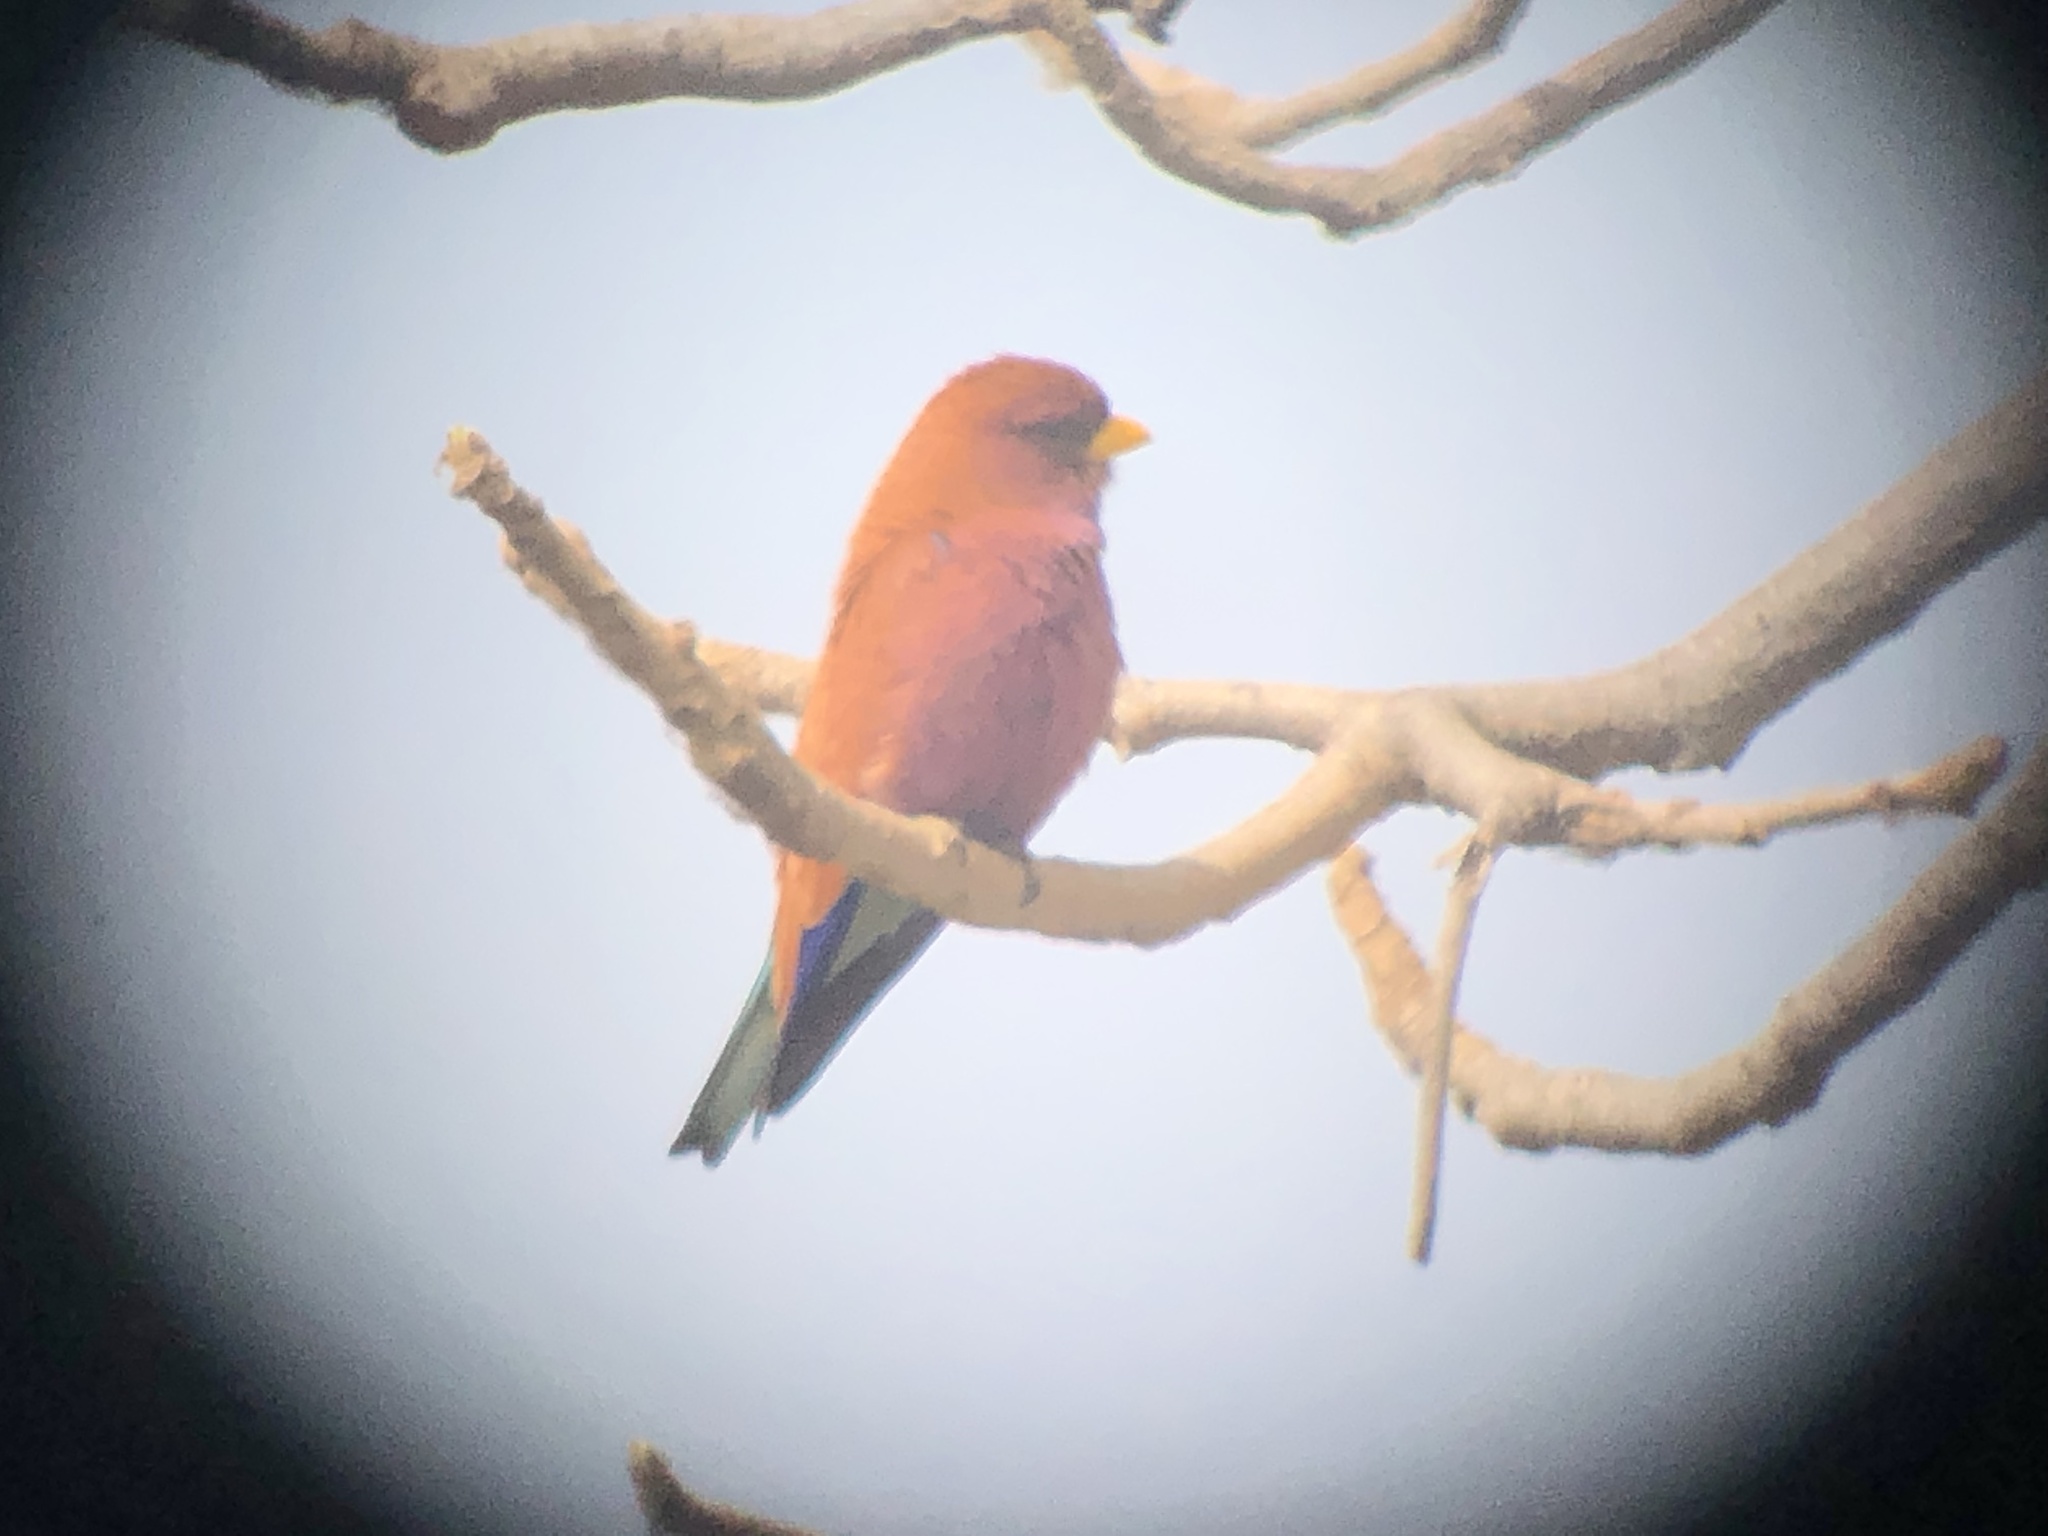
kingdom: Animalia
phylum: Chordata
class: Aves
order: Coraciiformes
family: Coraciidae
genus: Eurystomus
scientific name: Eurystomus glaucurus
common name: Broad-billed roller
